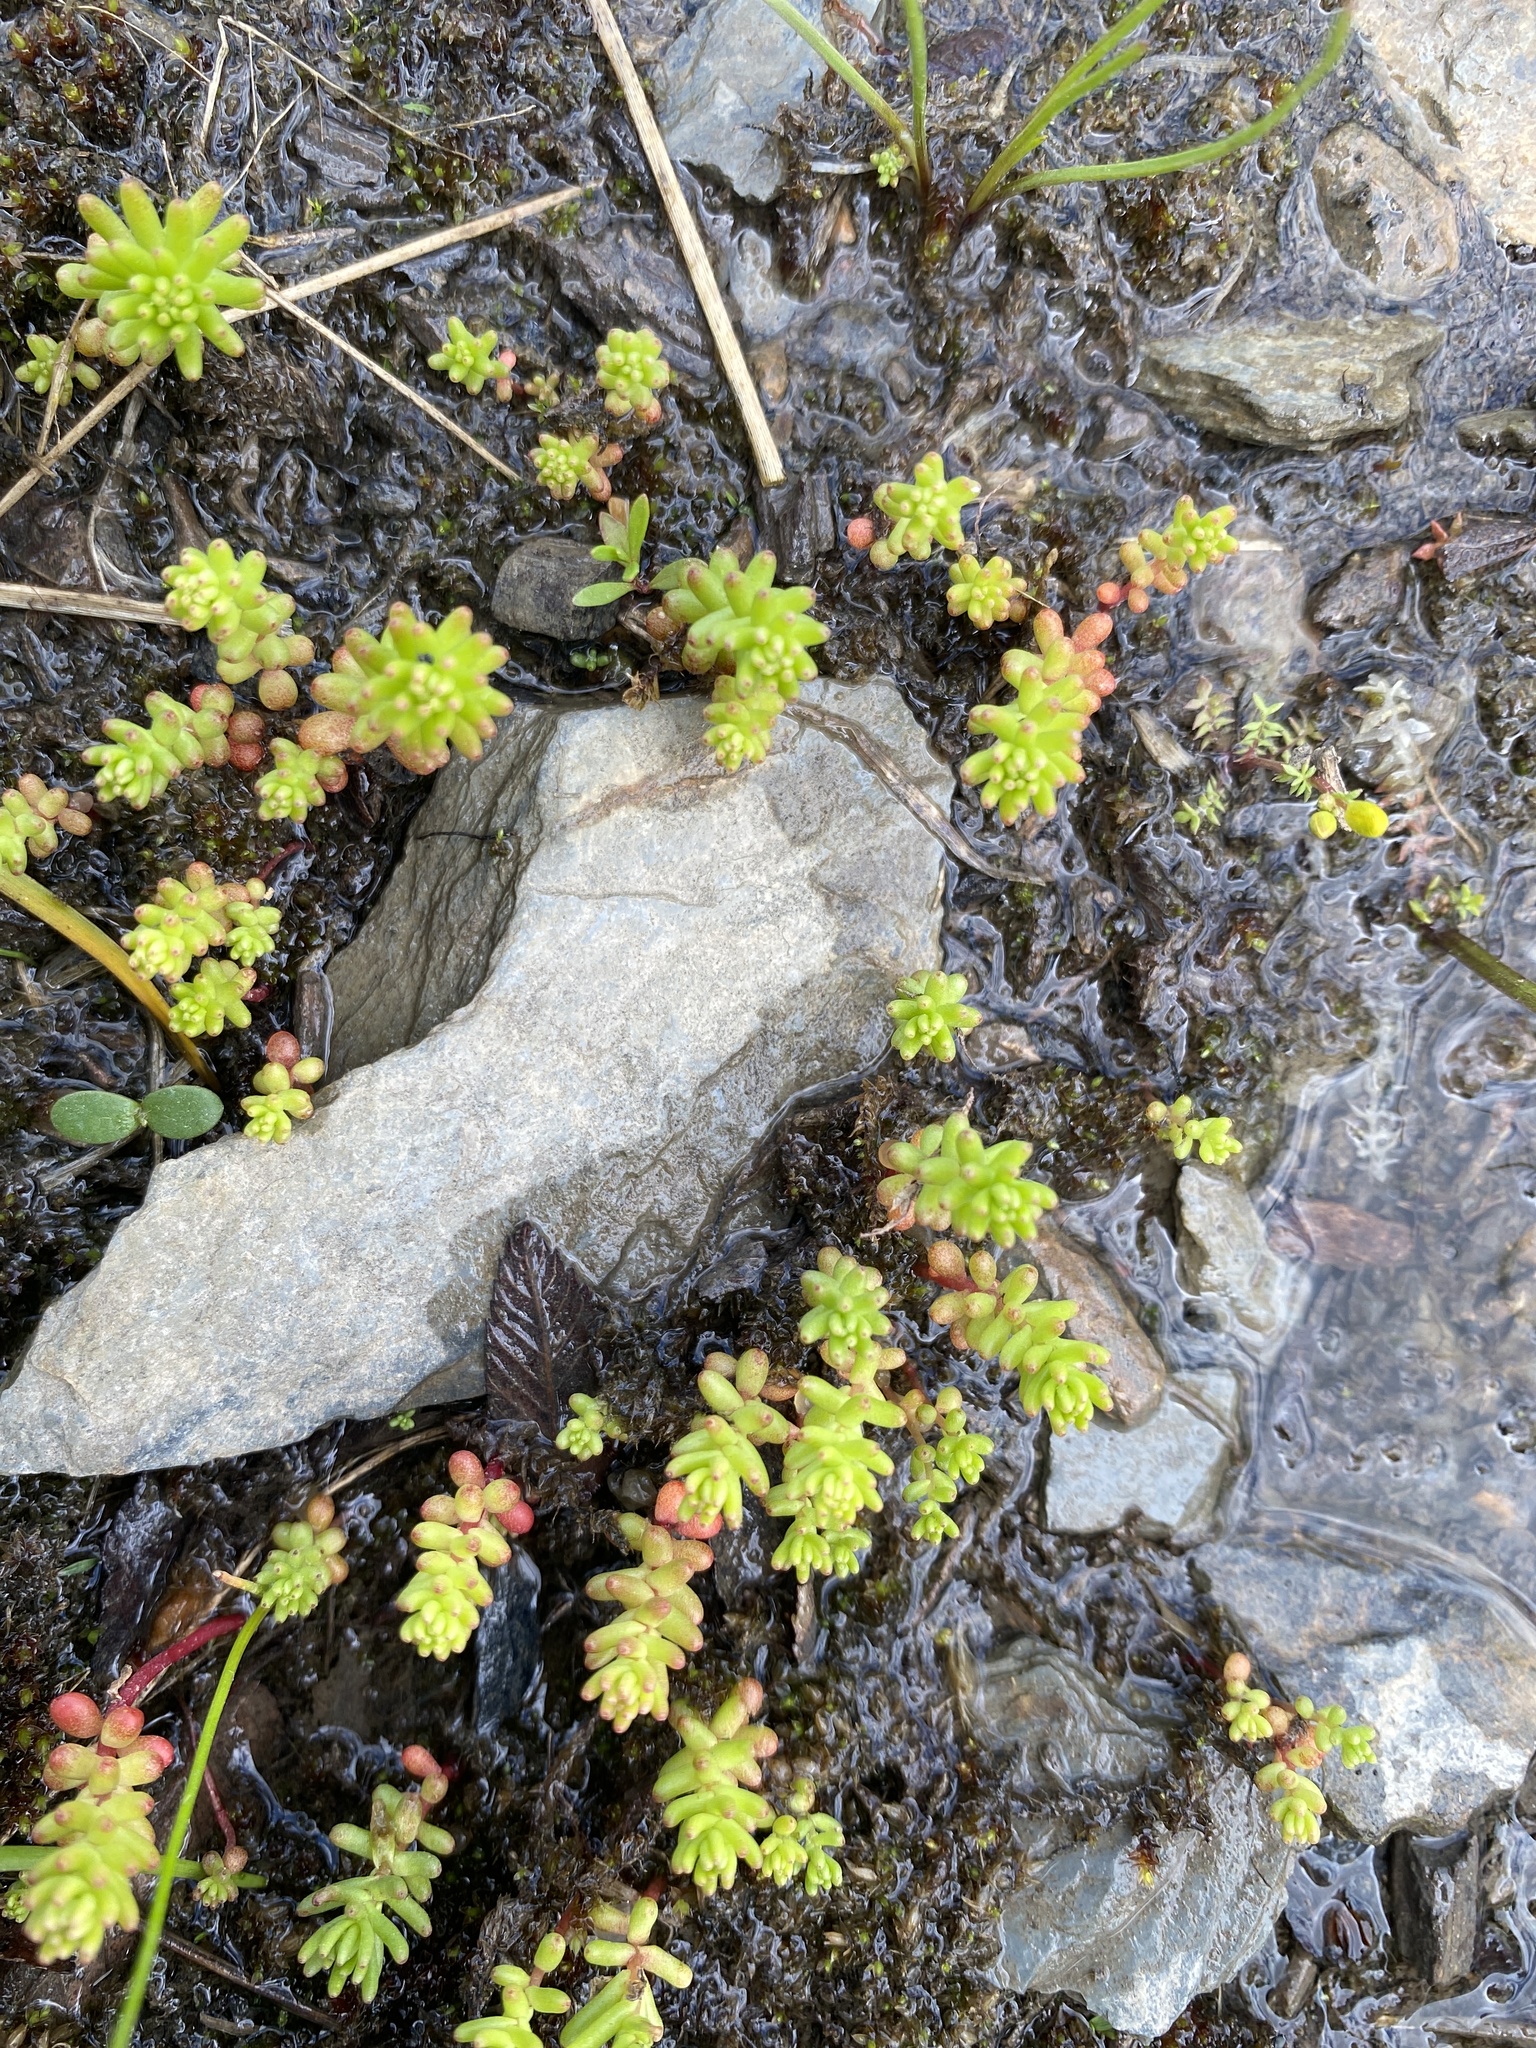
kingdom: Plantae
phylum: Tracheophyta
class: Magnoliopsida
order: Saxifragales
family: Crassulaceae
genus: Sedum
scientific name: Sedum pulchellum
